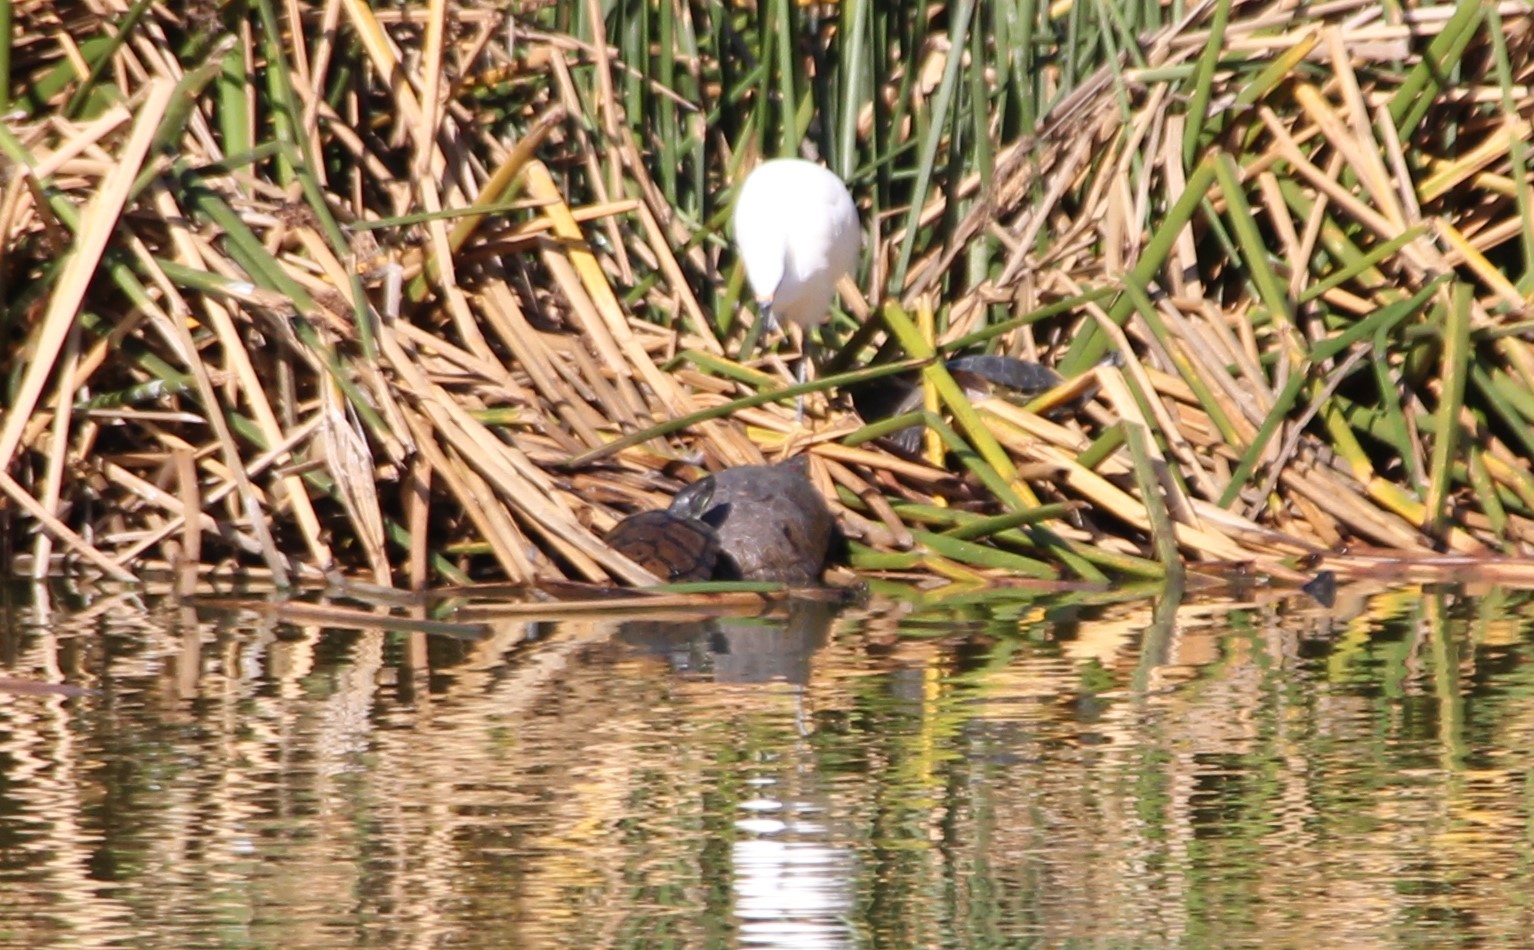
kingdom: Animalia
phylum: Chordata
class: Testudines
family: Emydidae
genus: Trachemys
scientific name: Trachemys scripta
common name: Slider
